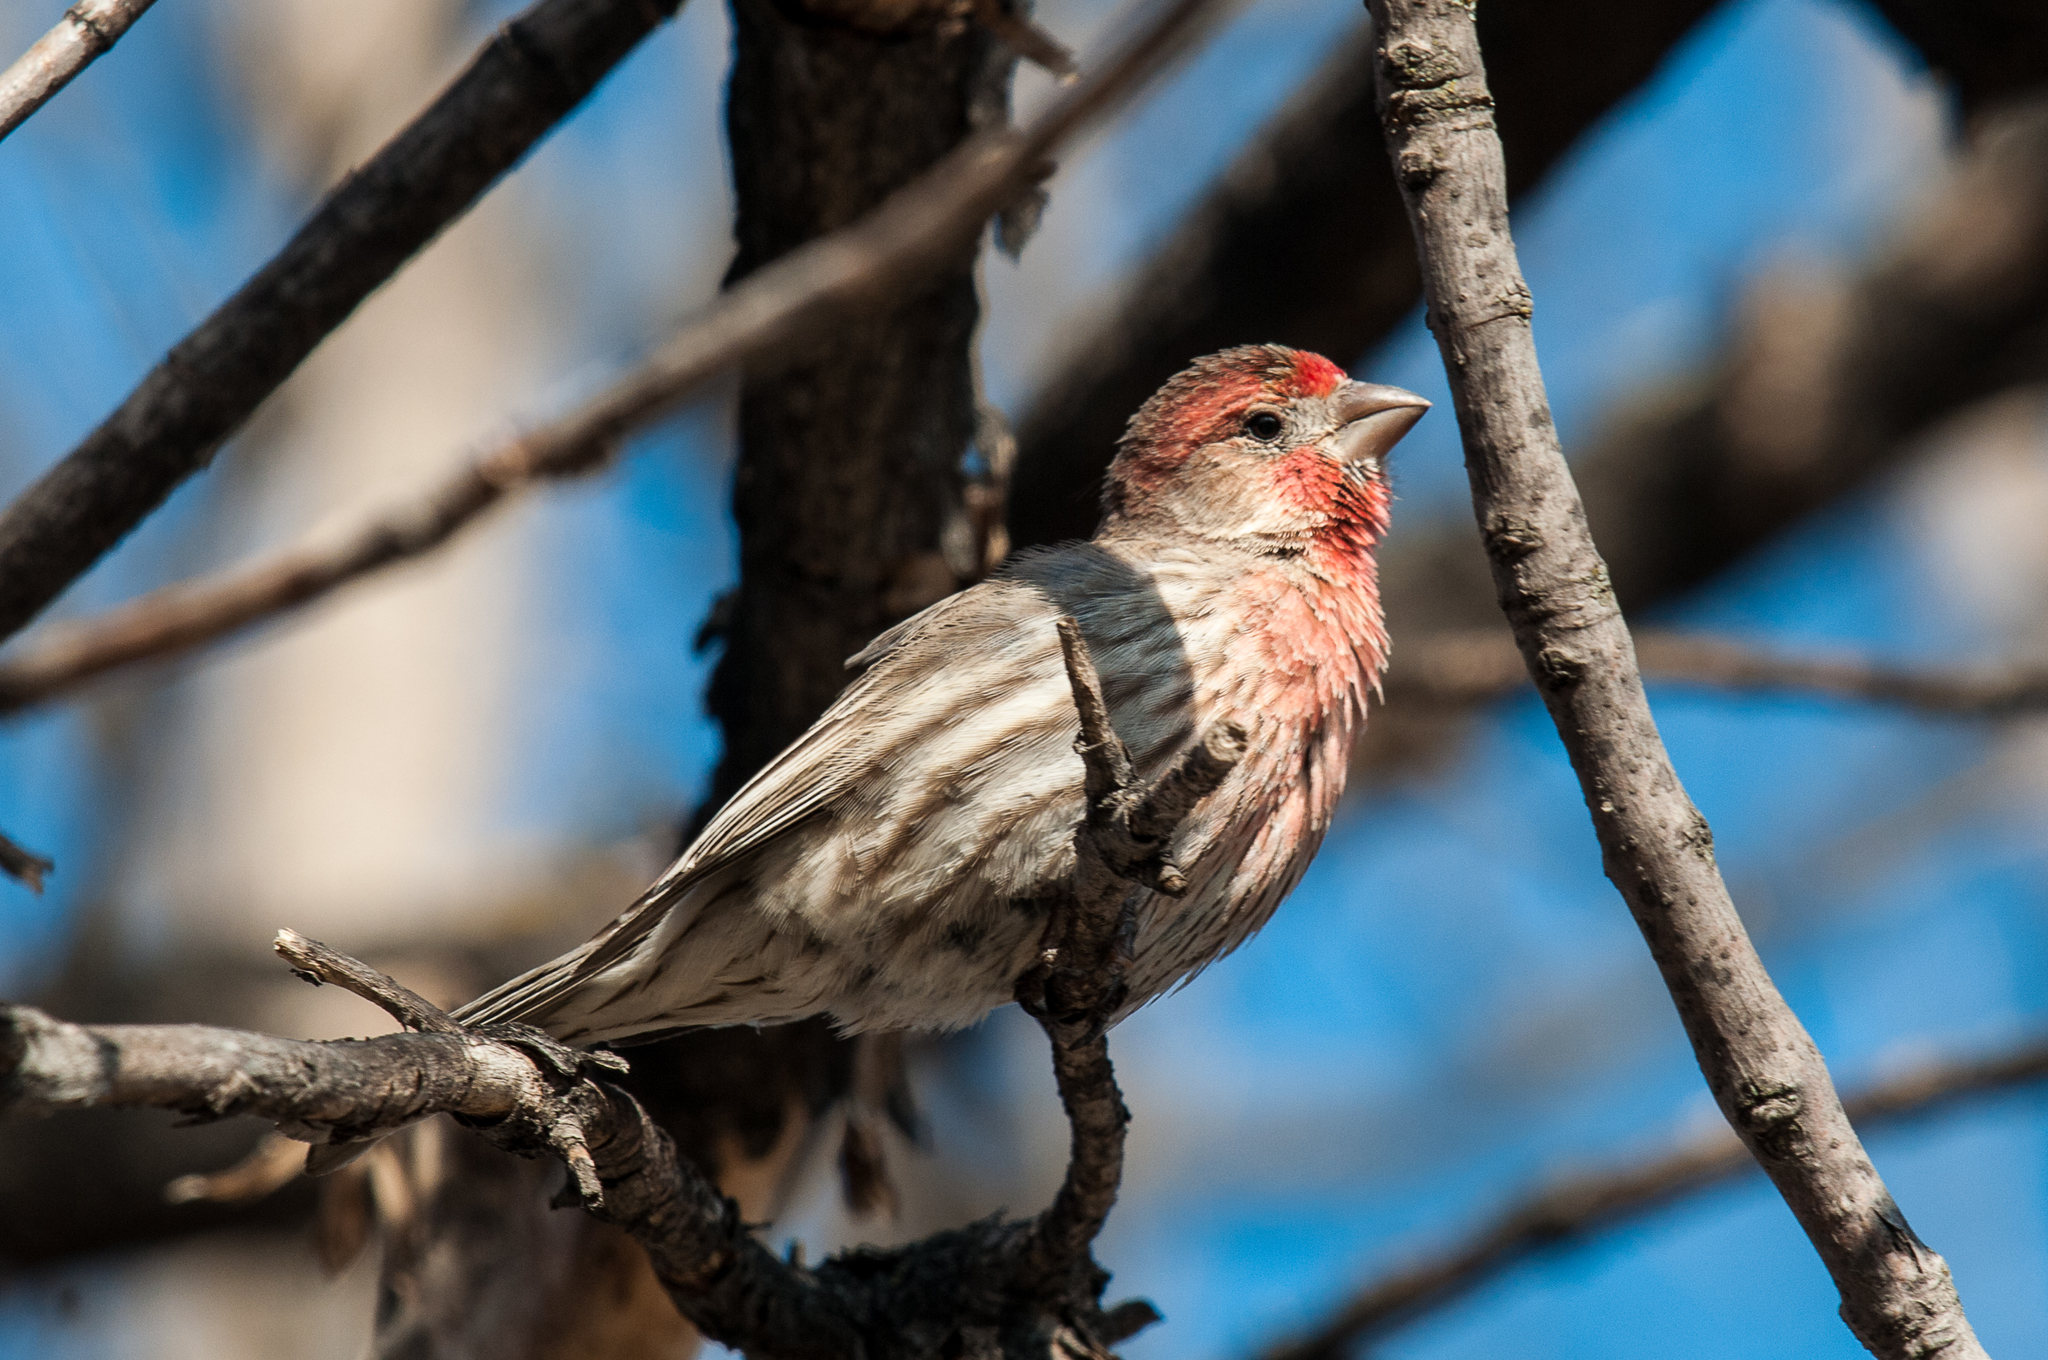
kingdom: Animalia
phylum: Chordata
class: Aves
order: Passeriformes
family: Fringillidae
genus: Haemorhous
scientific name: Haemorhous mexicanus
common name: House finch
